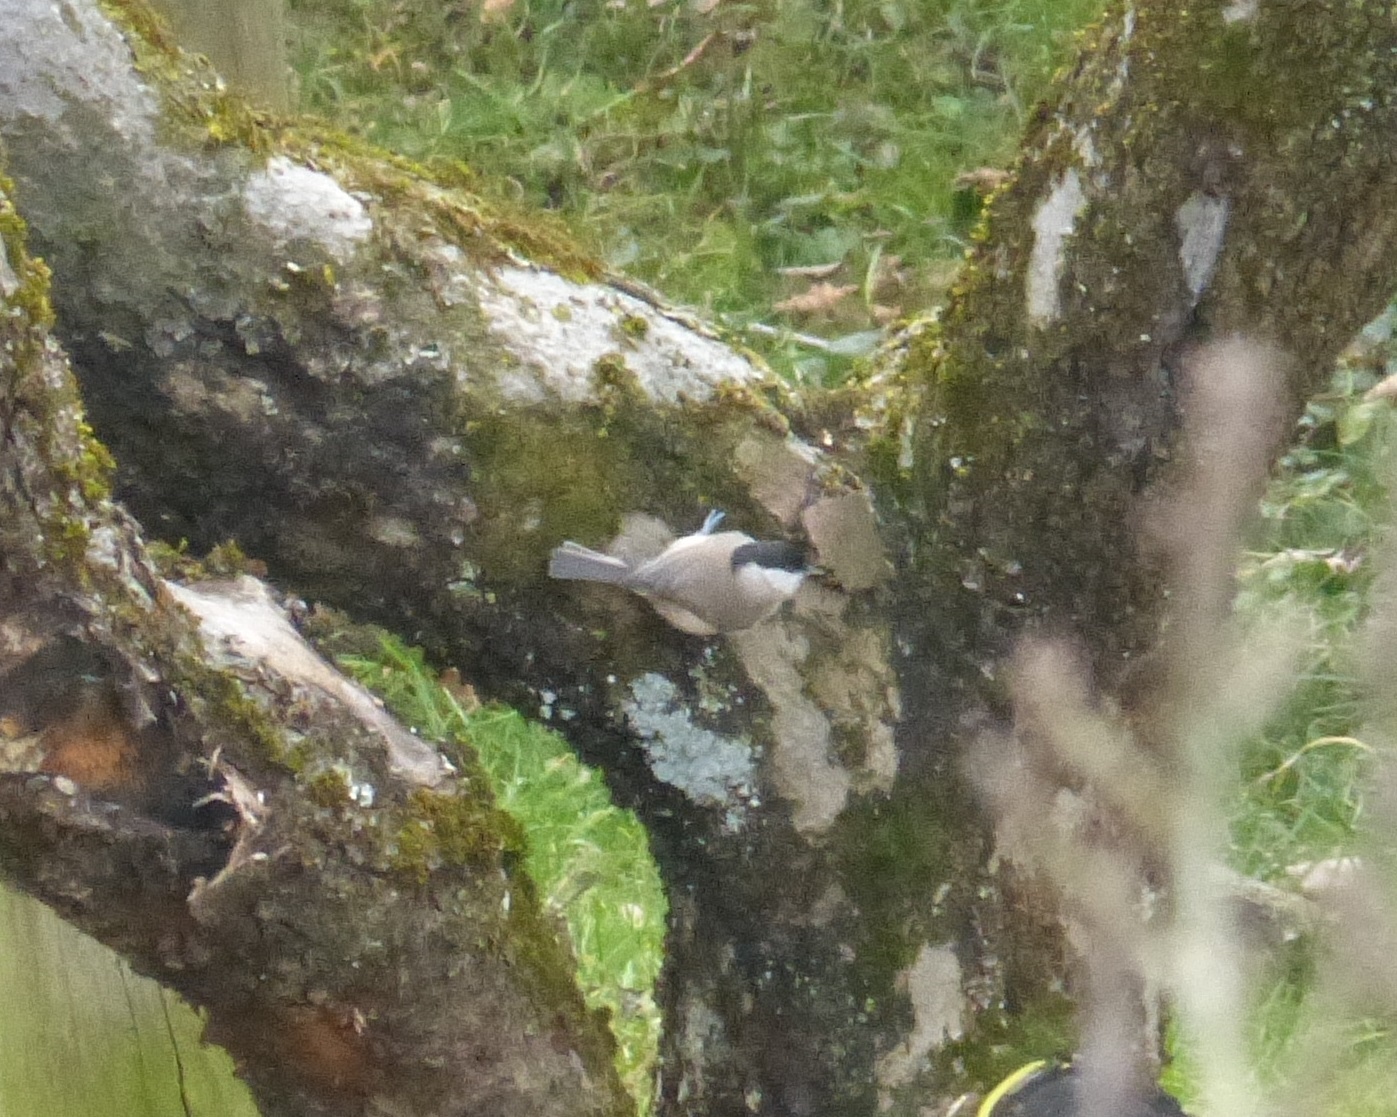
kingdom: Animalia
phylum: Chordata
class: Aves
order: Passeriformes
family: Paridae
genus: Poecile
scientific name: Poecile palustris
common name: Marsh tit
